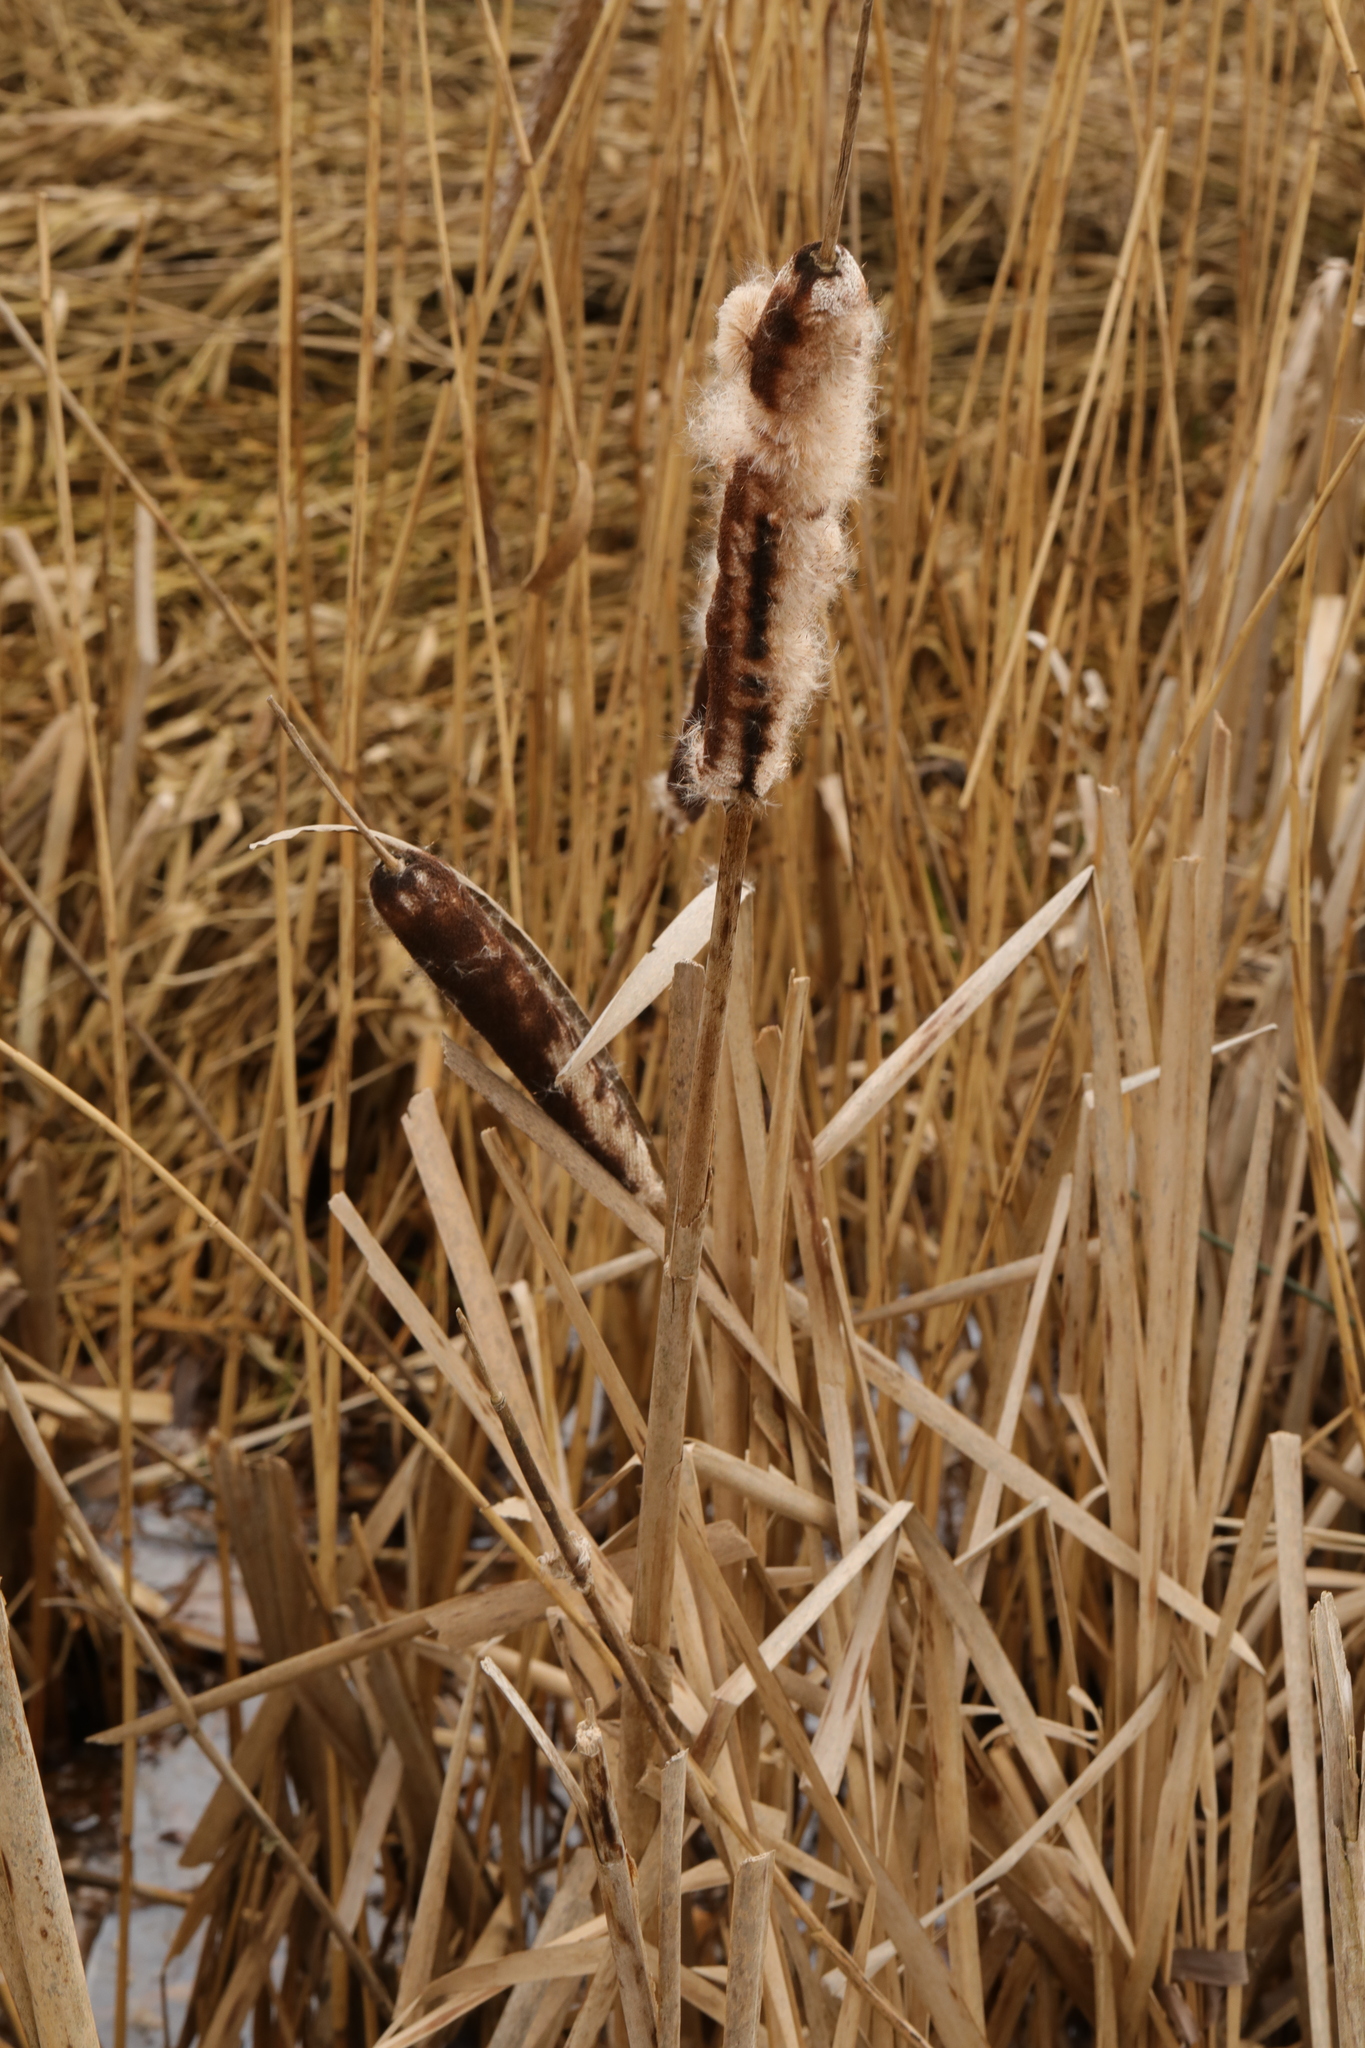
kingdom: Plantae
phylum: Tracheophyta
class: Liliopsida
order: Poales
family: Typhaceae
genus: Typha
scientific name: Typha latifolia
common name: Broadleaf cattail
